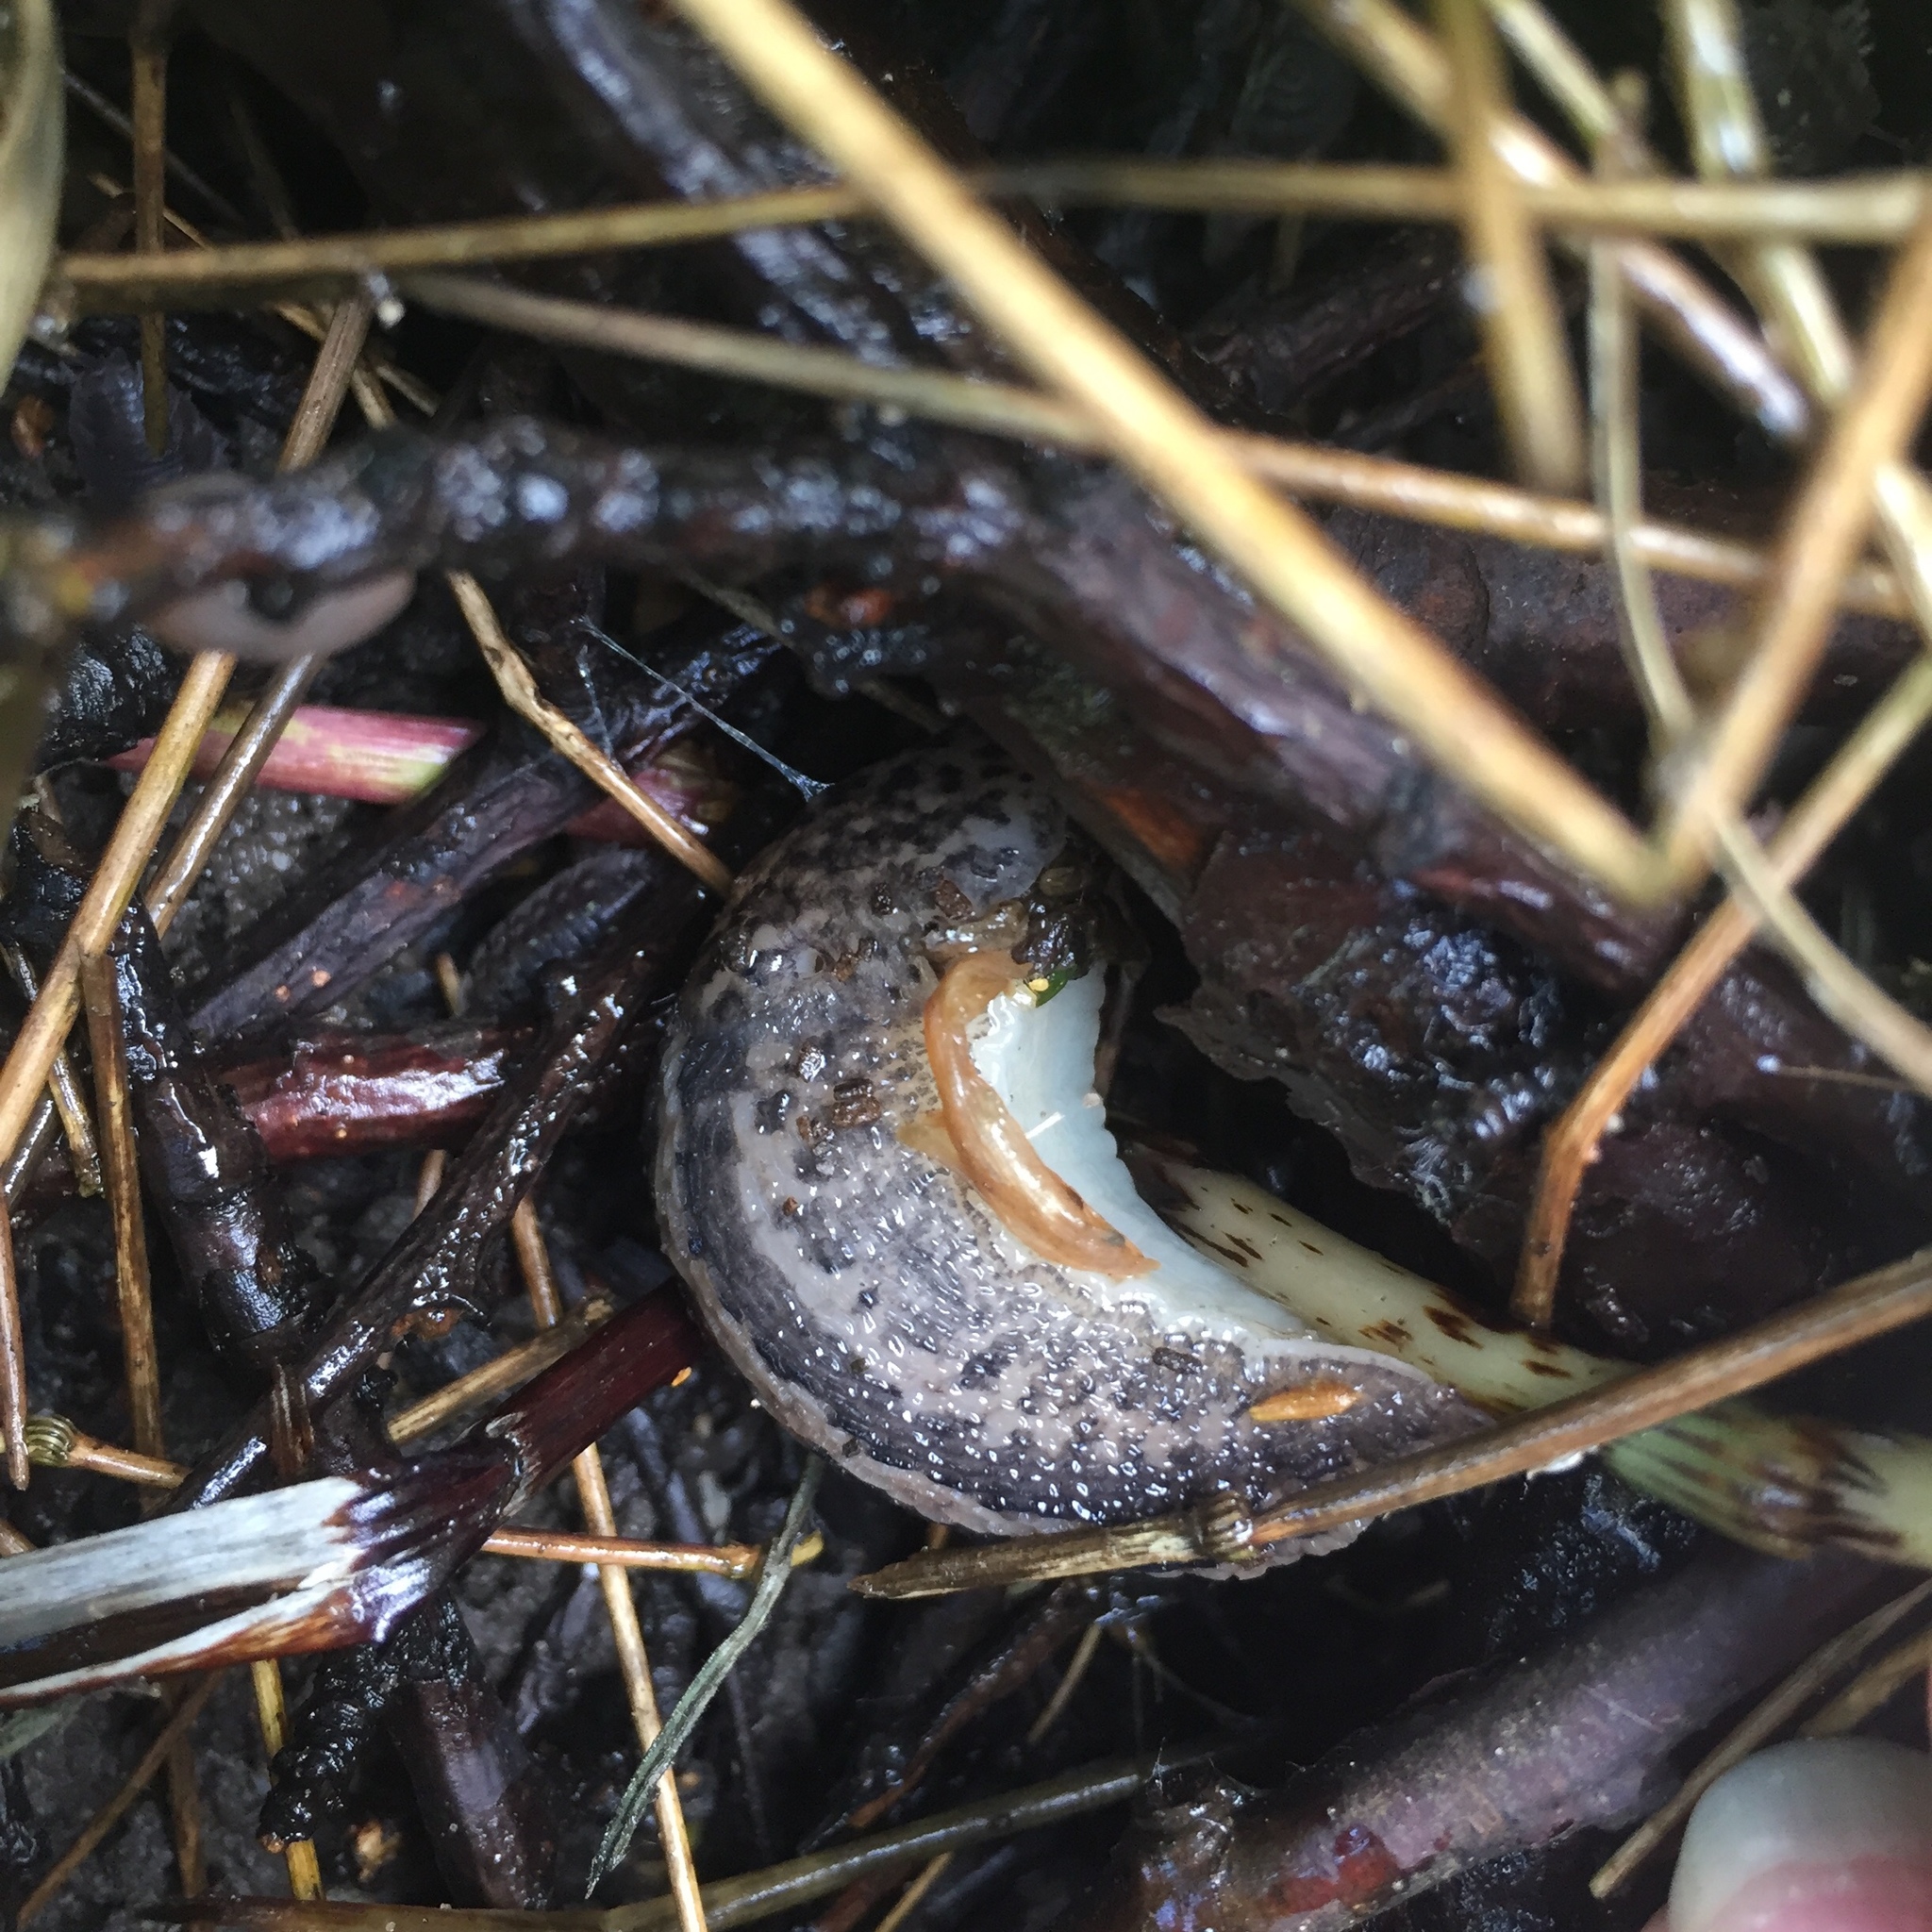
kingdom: Animalia
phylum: Mollusca
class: Gastropoda
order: Stylommatophora
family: Limacidae
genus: Limax
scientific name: Limax maximus
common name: Great grey slug
